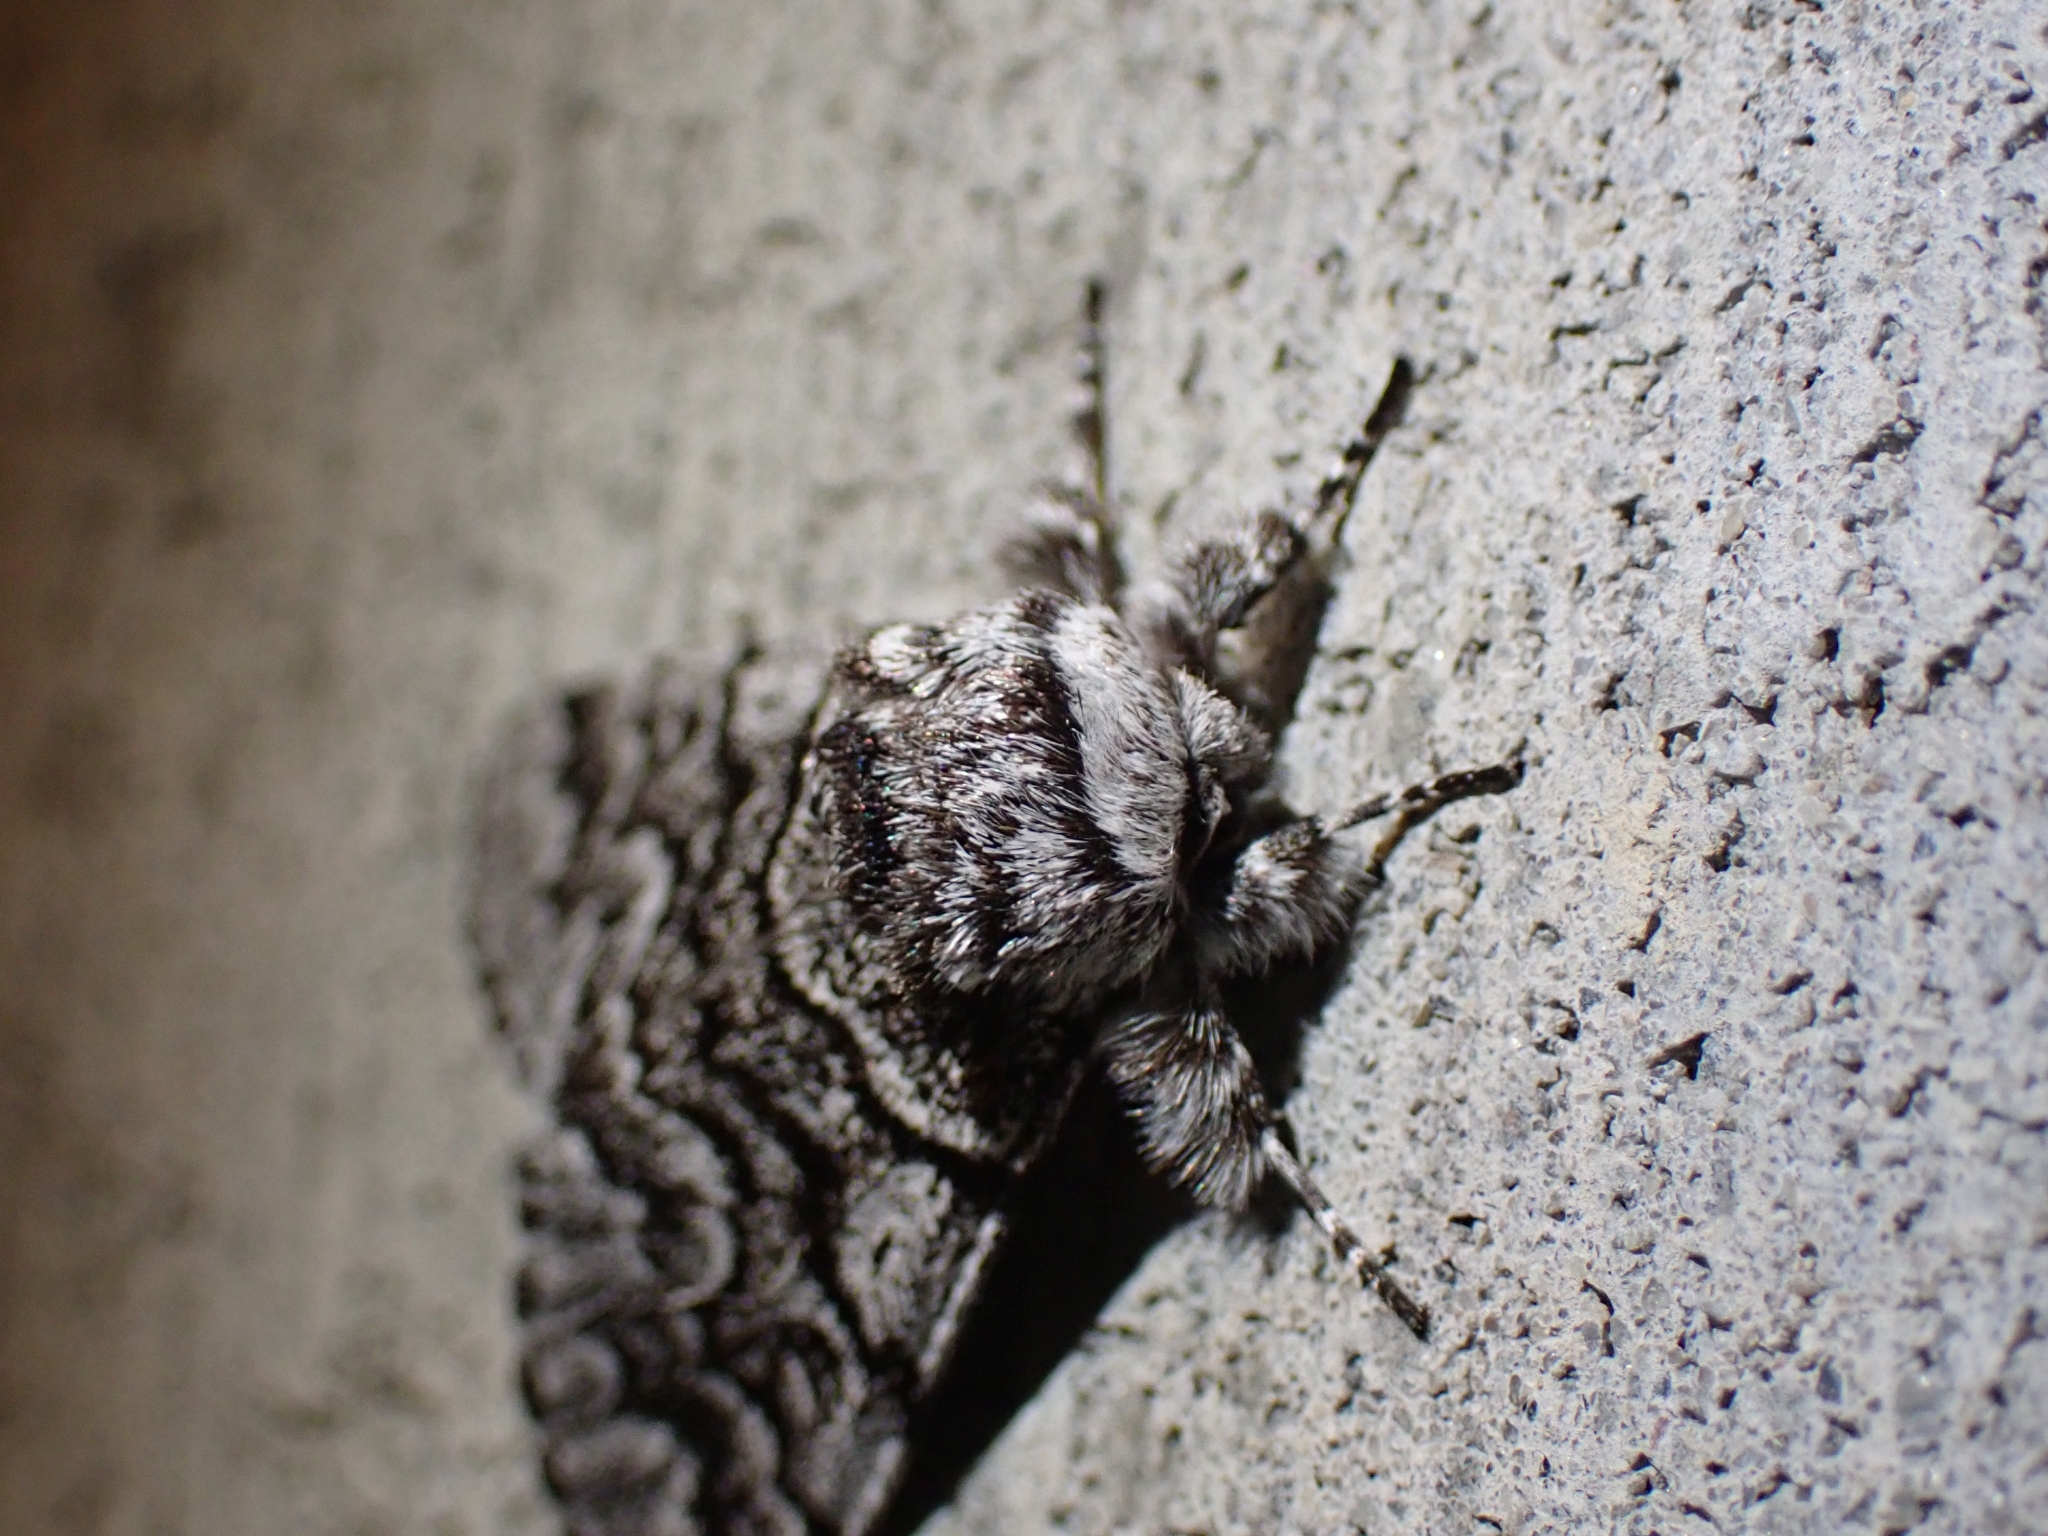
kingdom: Animalia
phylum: Arthropoda
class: Insecta
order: Lepidoptera
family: Noctuidae
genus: Panthea
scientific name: Panthea virginarius
